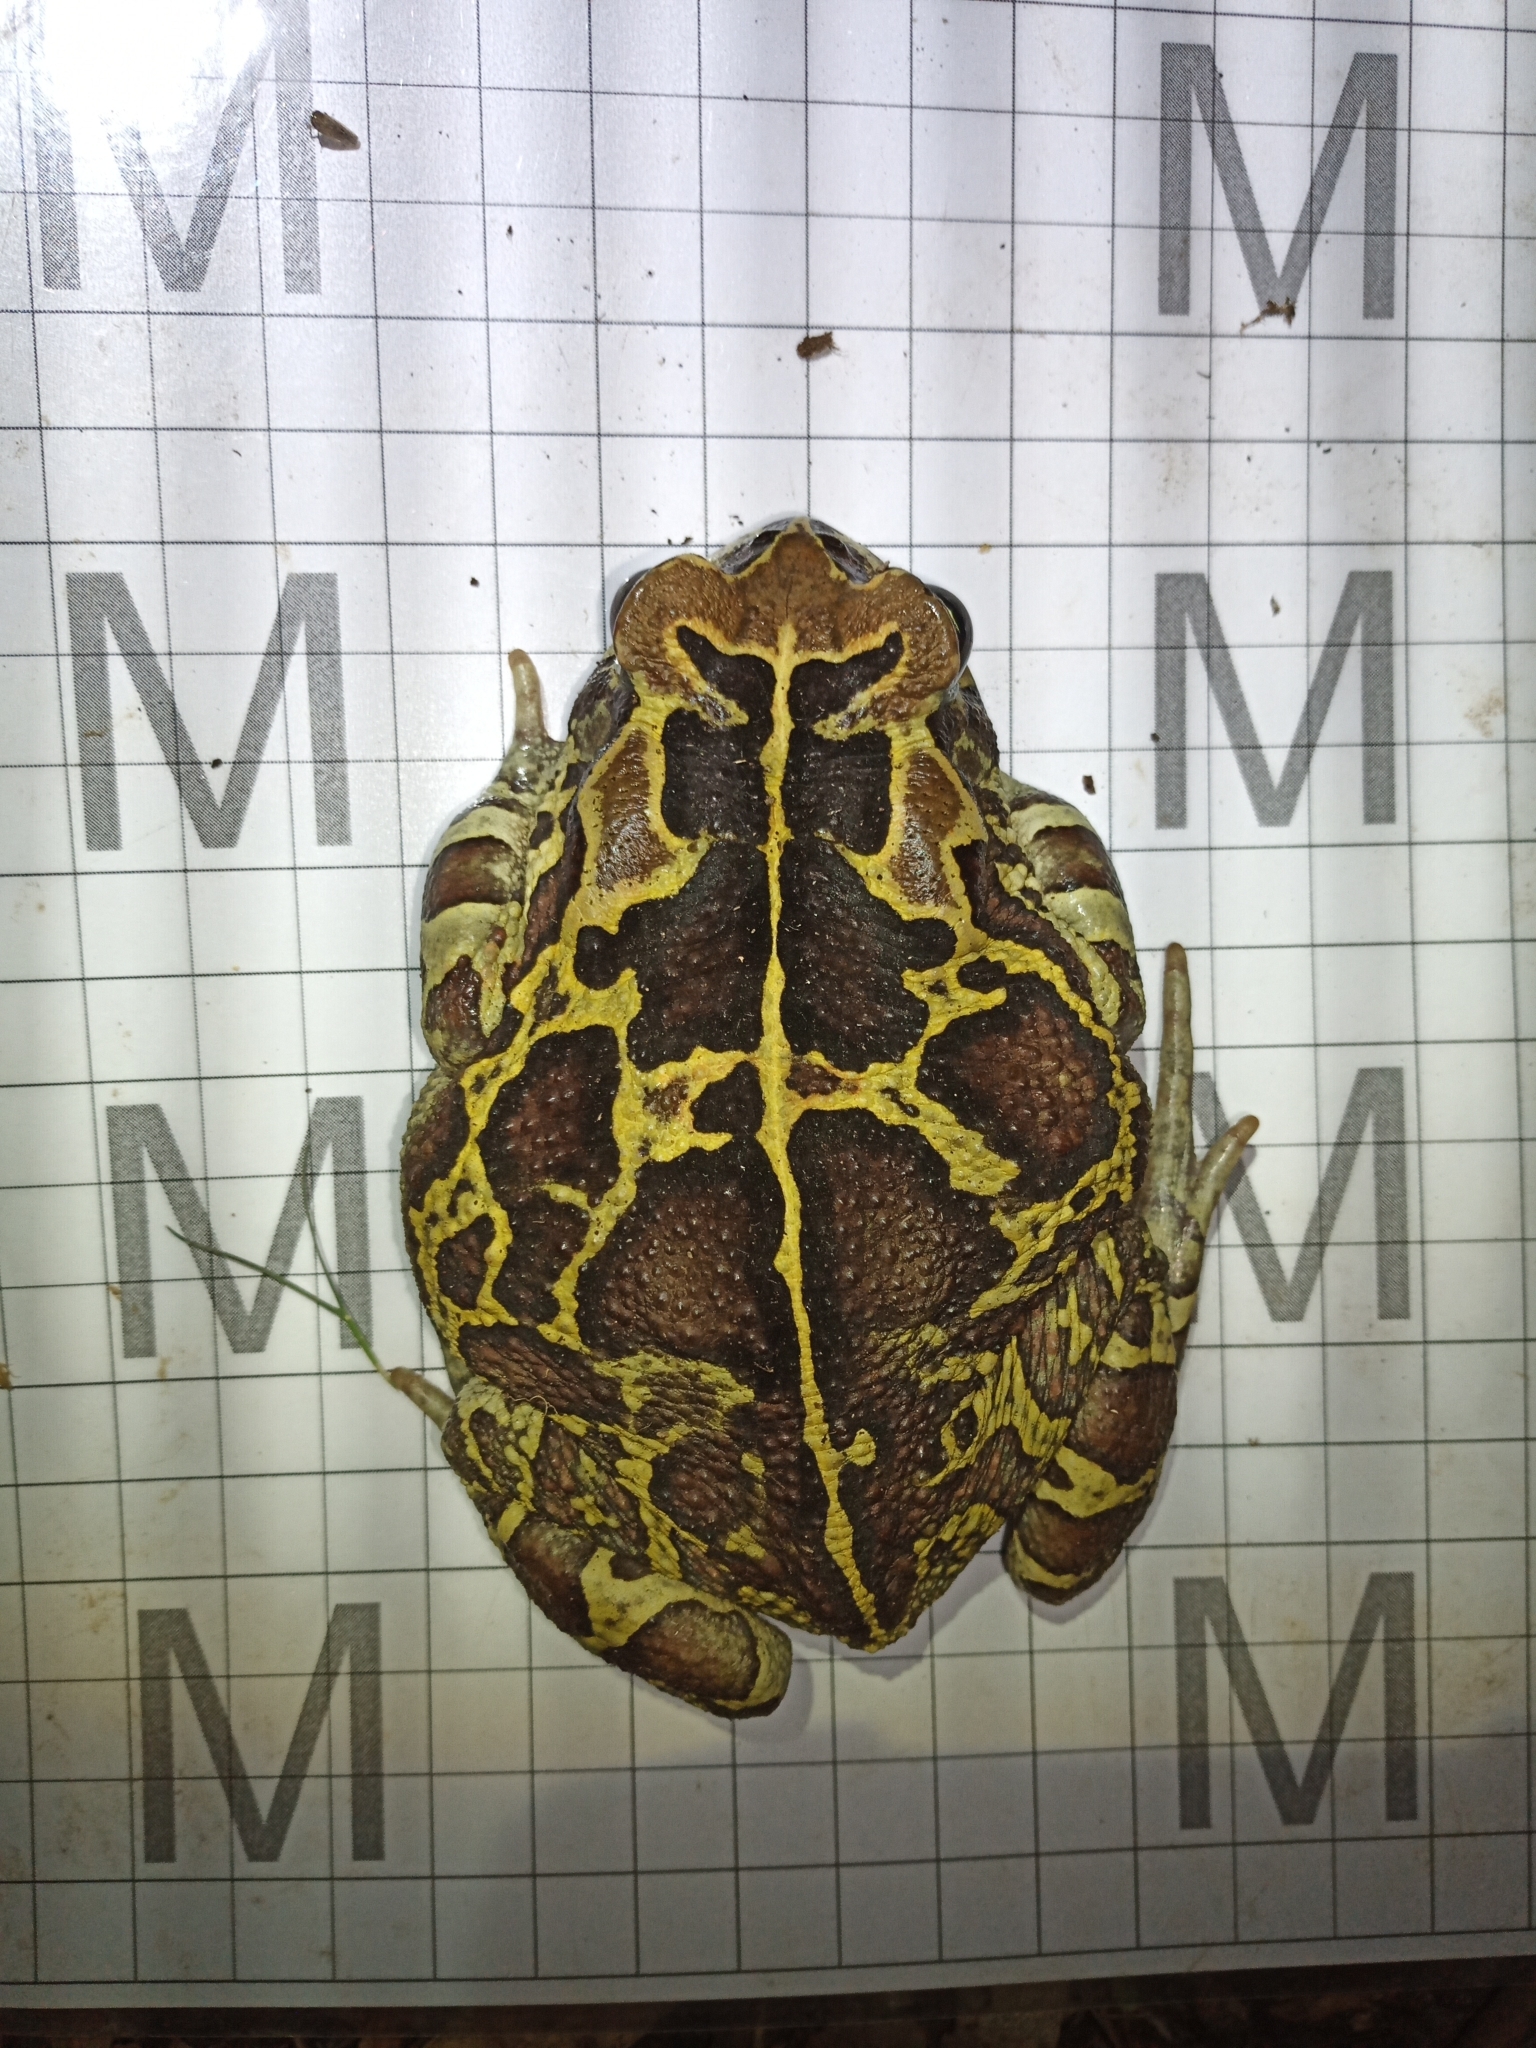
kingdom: Animalia
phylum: Chordata
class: Amphibia
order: Anura
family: Bufonidae
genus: Sclerophrys
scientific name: Sclerophrys pantherina
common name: Panther toad
